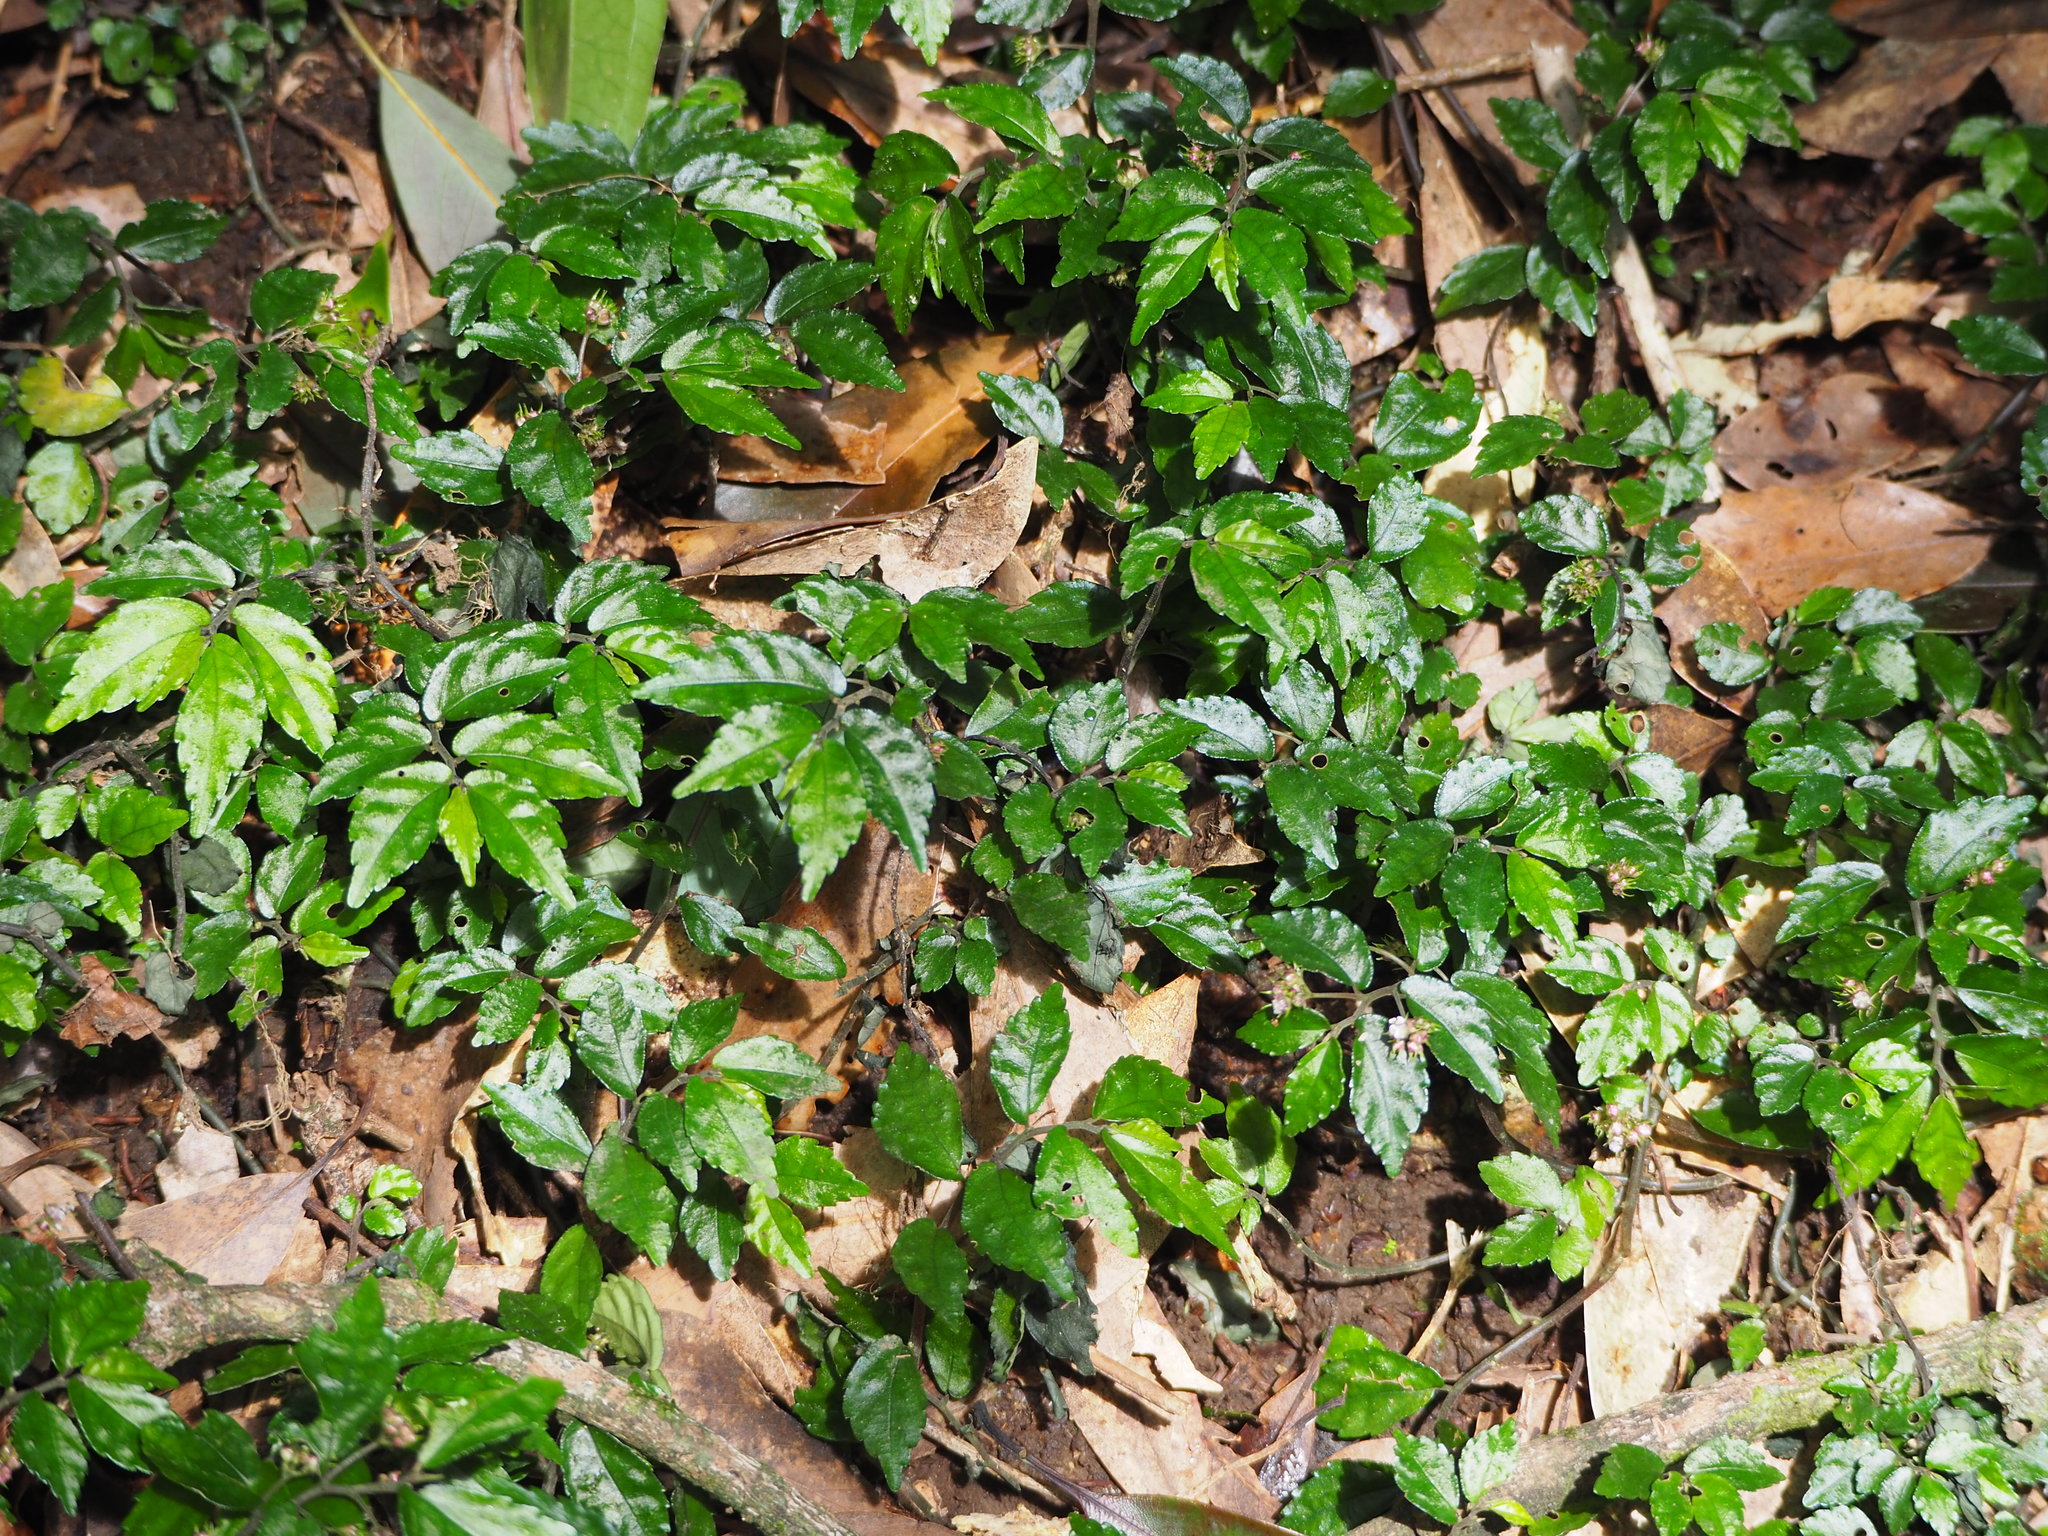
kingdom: Plantae
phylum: Tracheophyta
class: Magnoliopsida
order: Rosales
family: Urticaceae
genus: Elatostema
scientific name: Elatostema radicans
